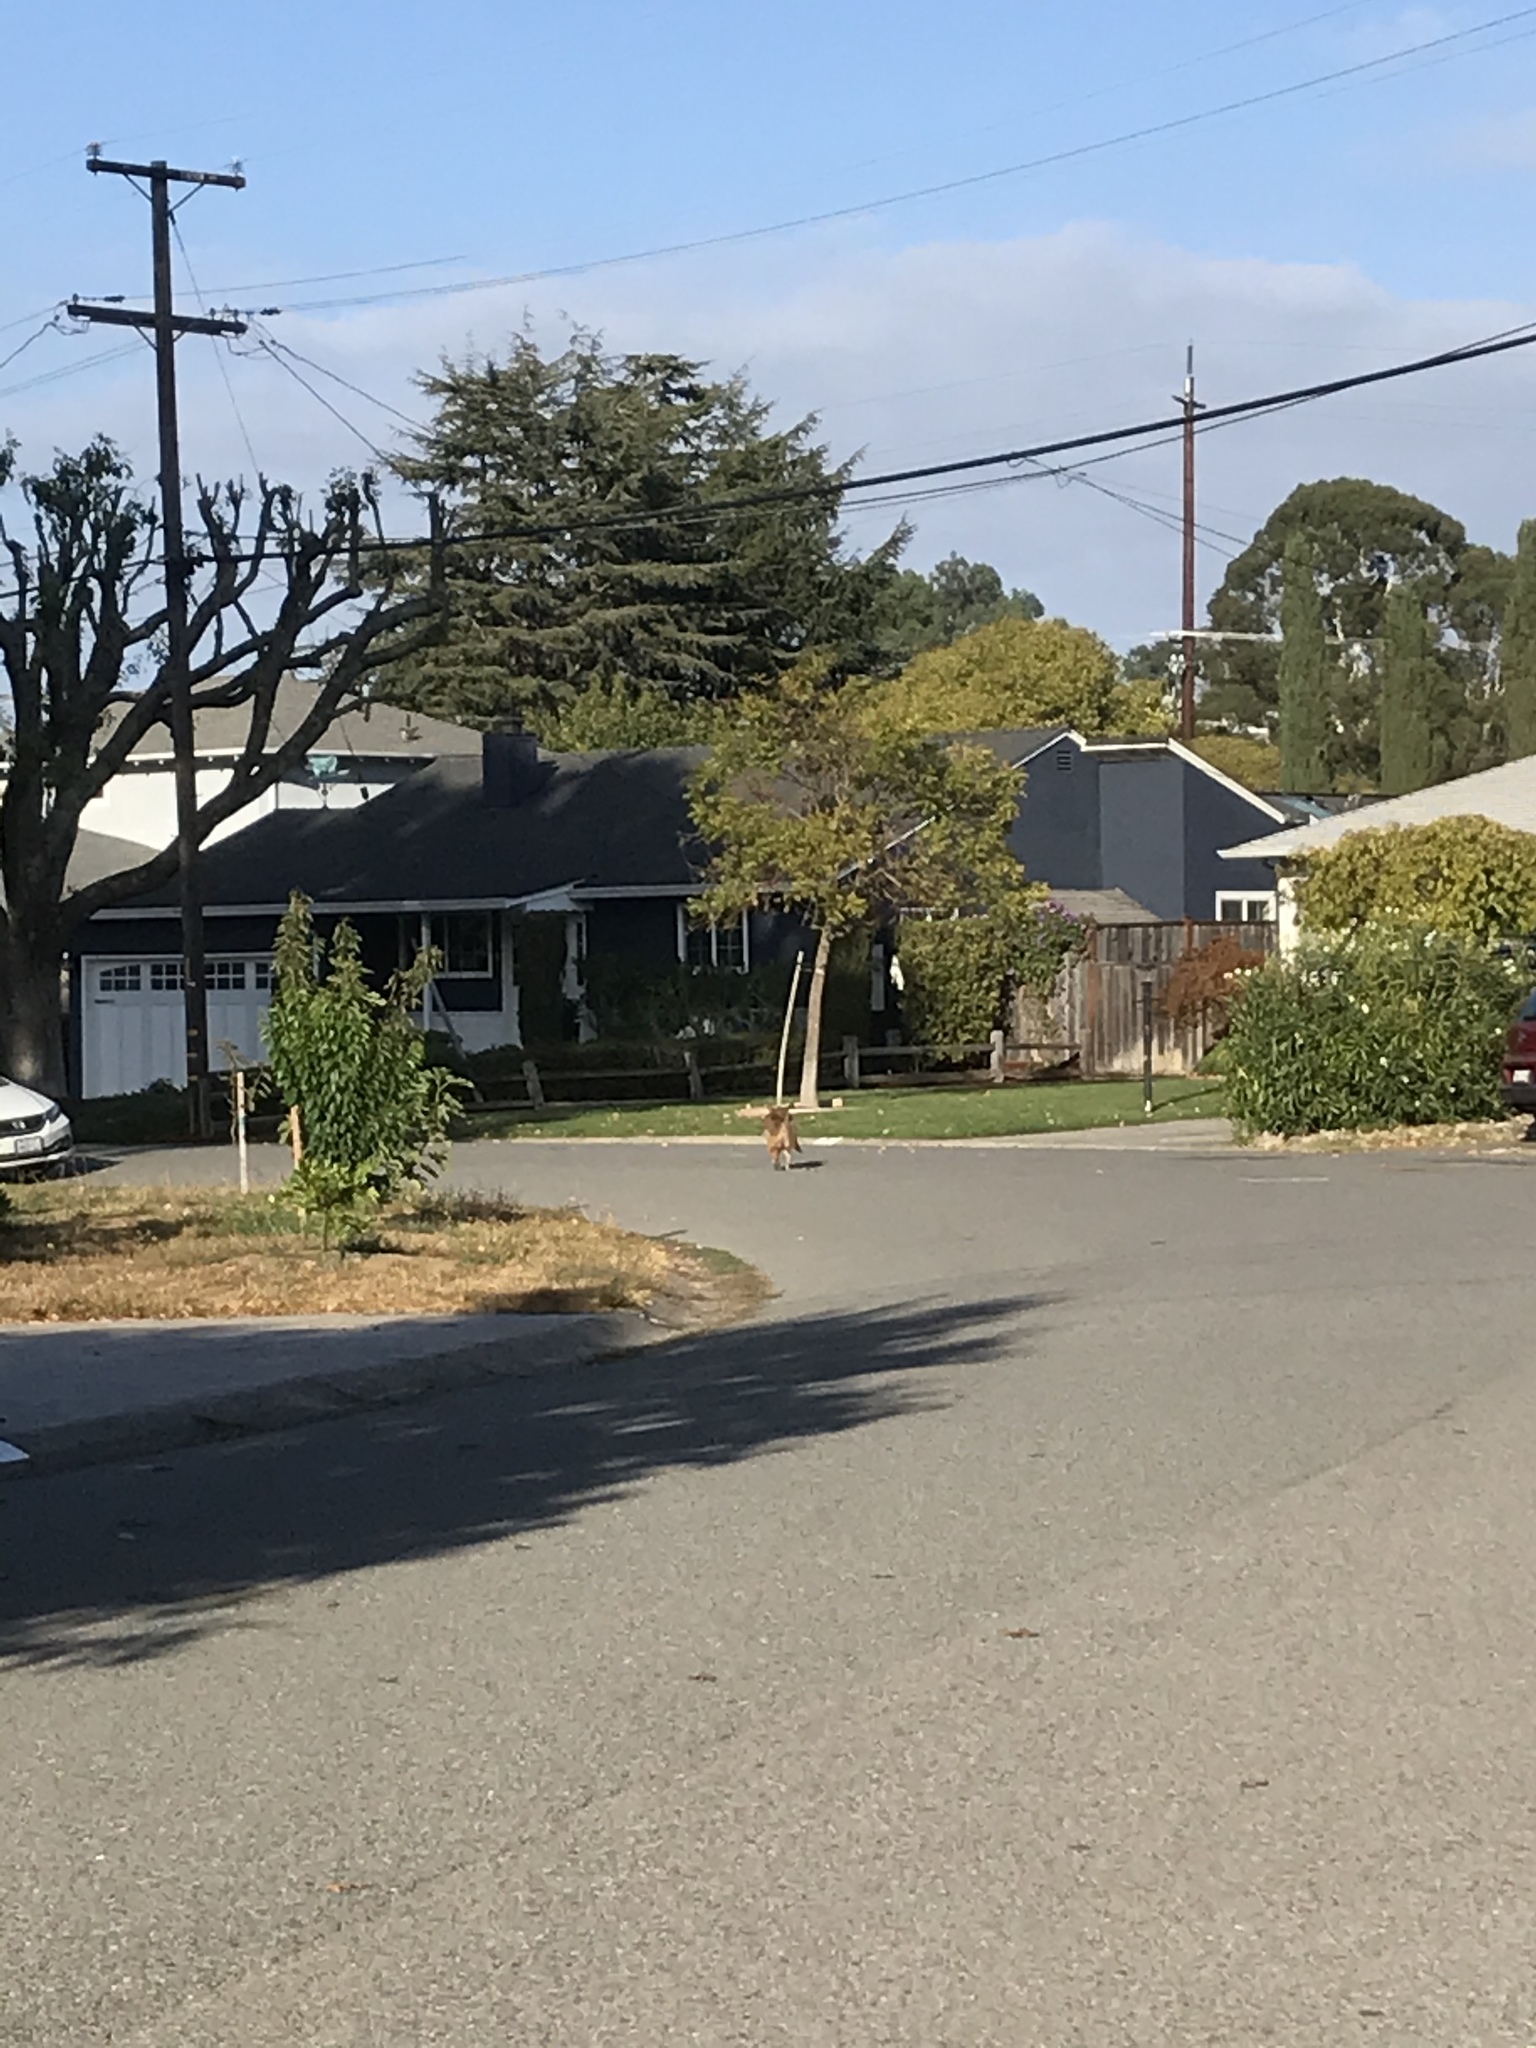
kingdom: Animalia
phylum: Chordata
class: Mammalia
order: Carnivora
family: Canidae
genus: Canis
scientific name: Canis latrans
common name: Coyote
